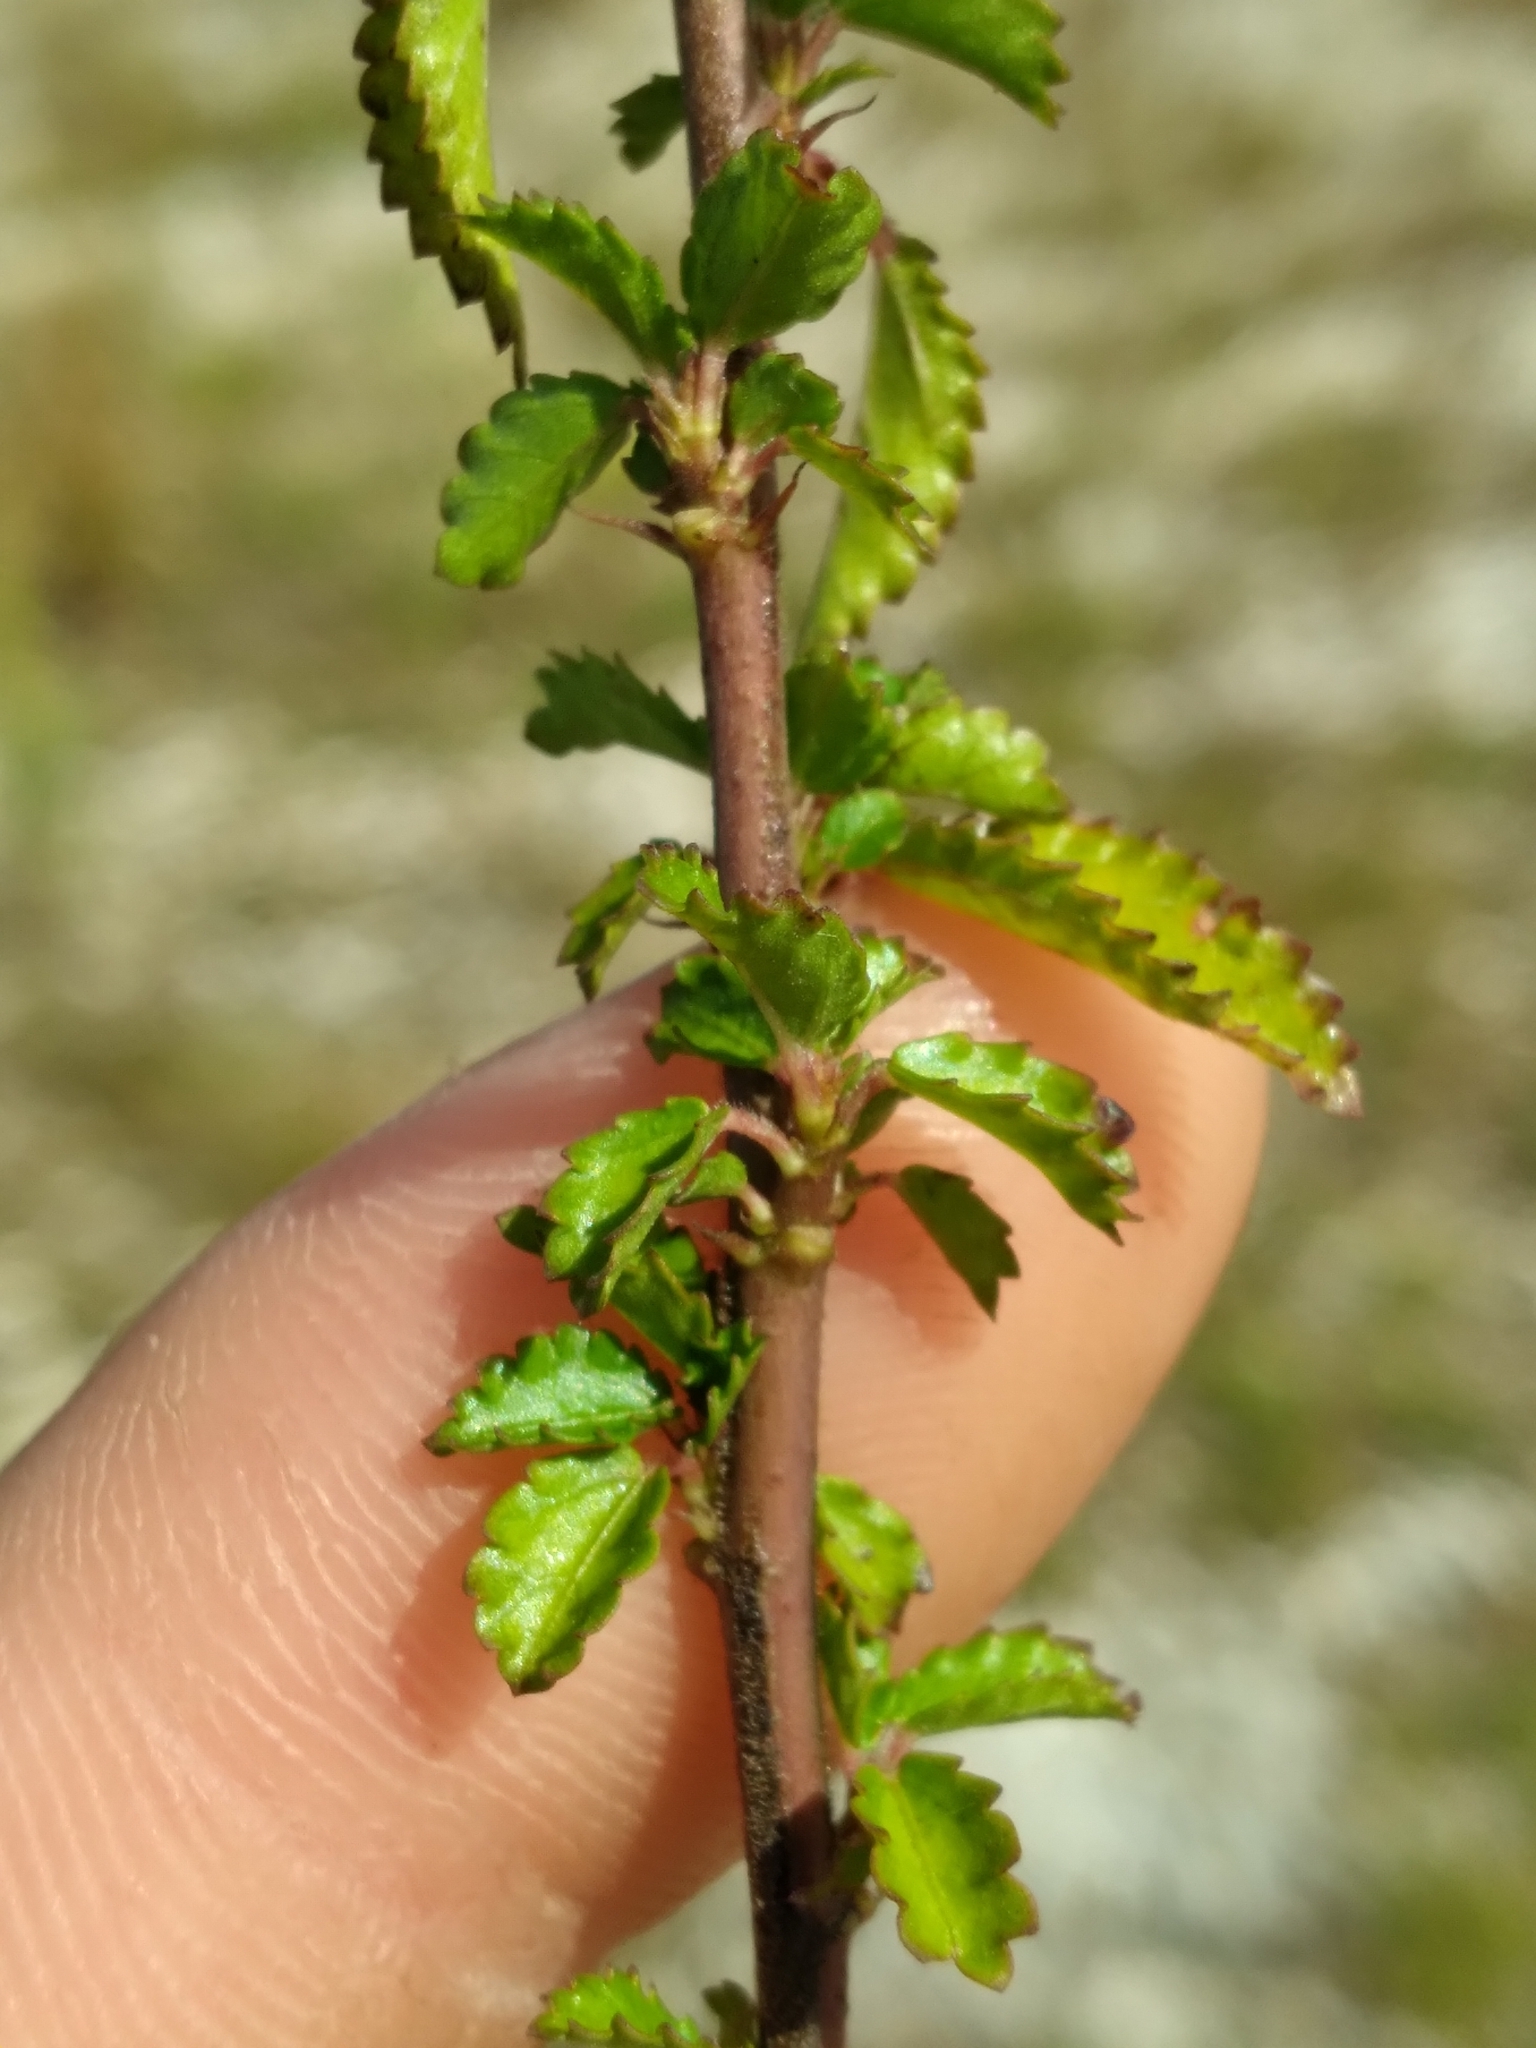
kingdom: Plantae
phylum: Tracheophyta
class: Magnoliopsida
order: Malvales
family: Malvaceae
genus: Corchorus
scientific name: Corchorus siliquosus
